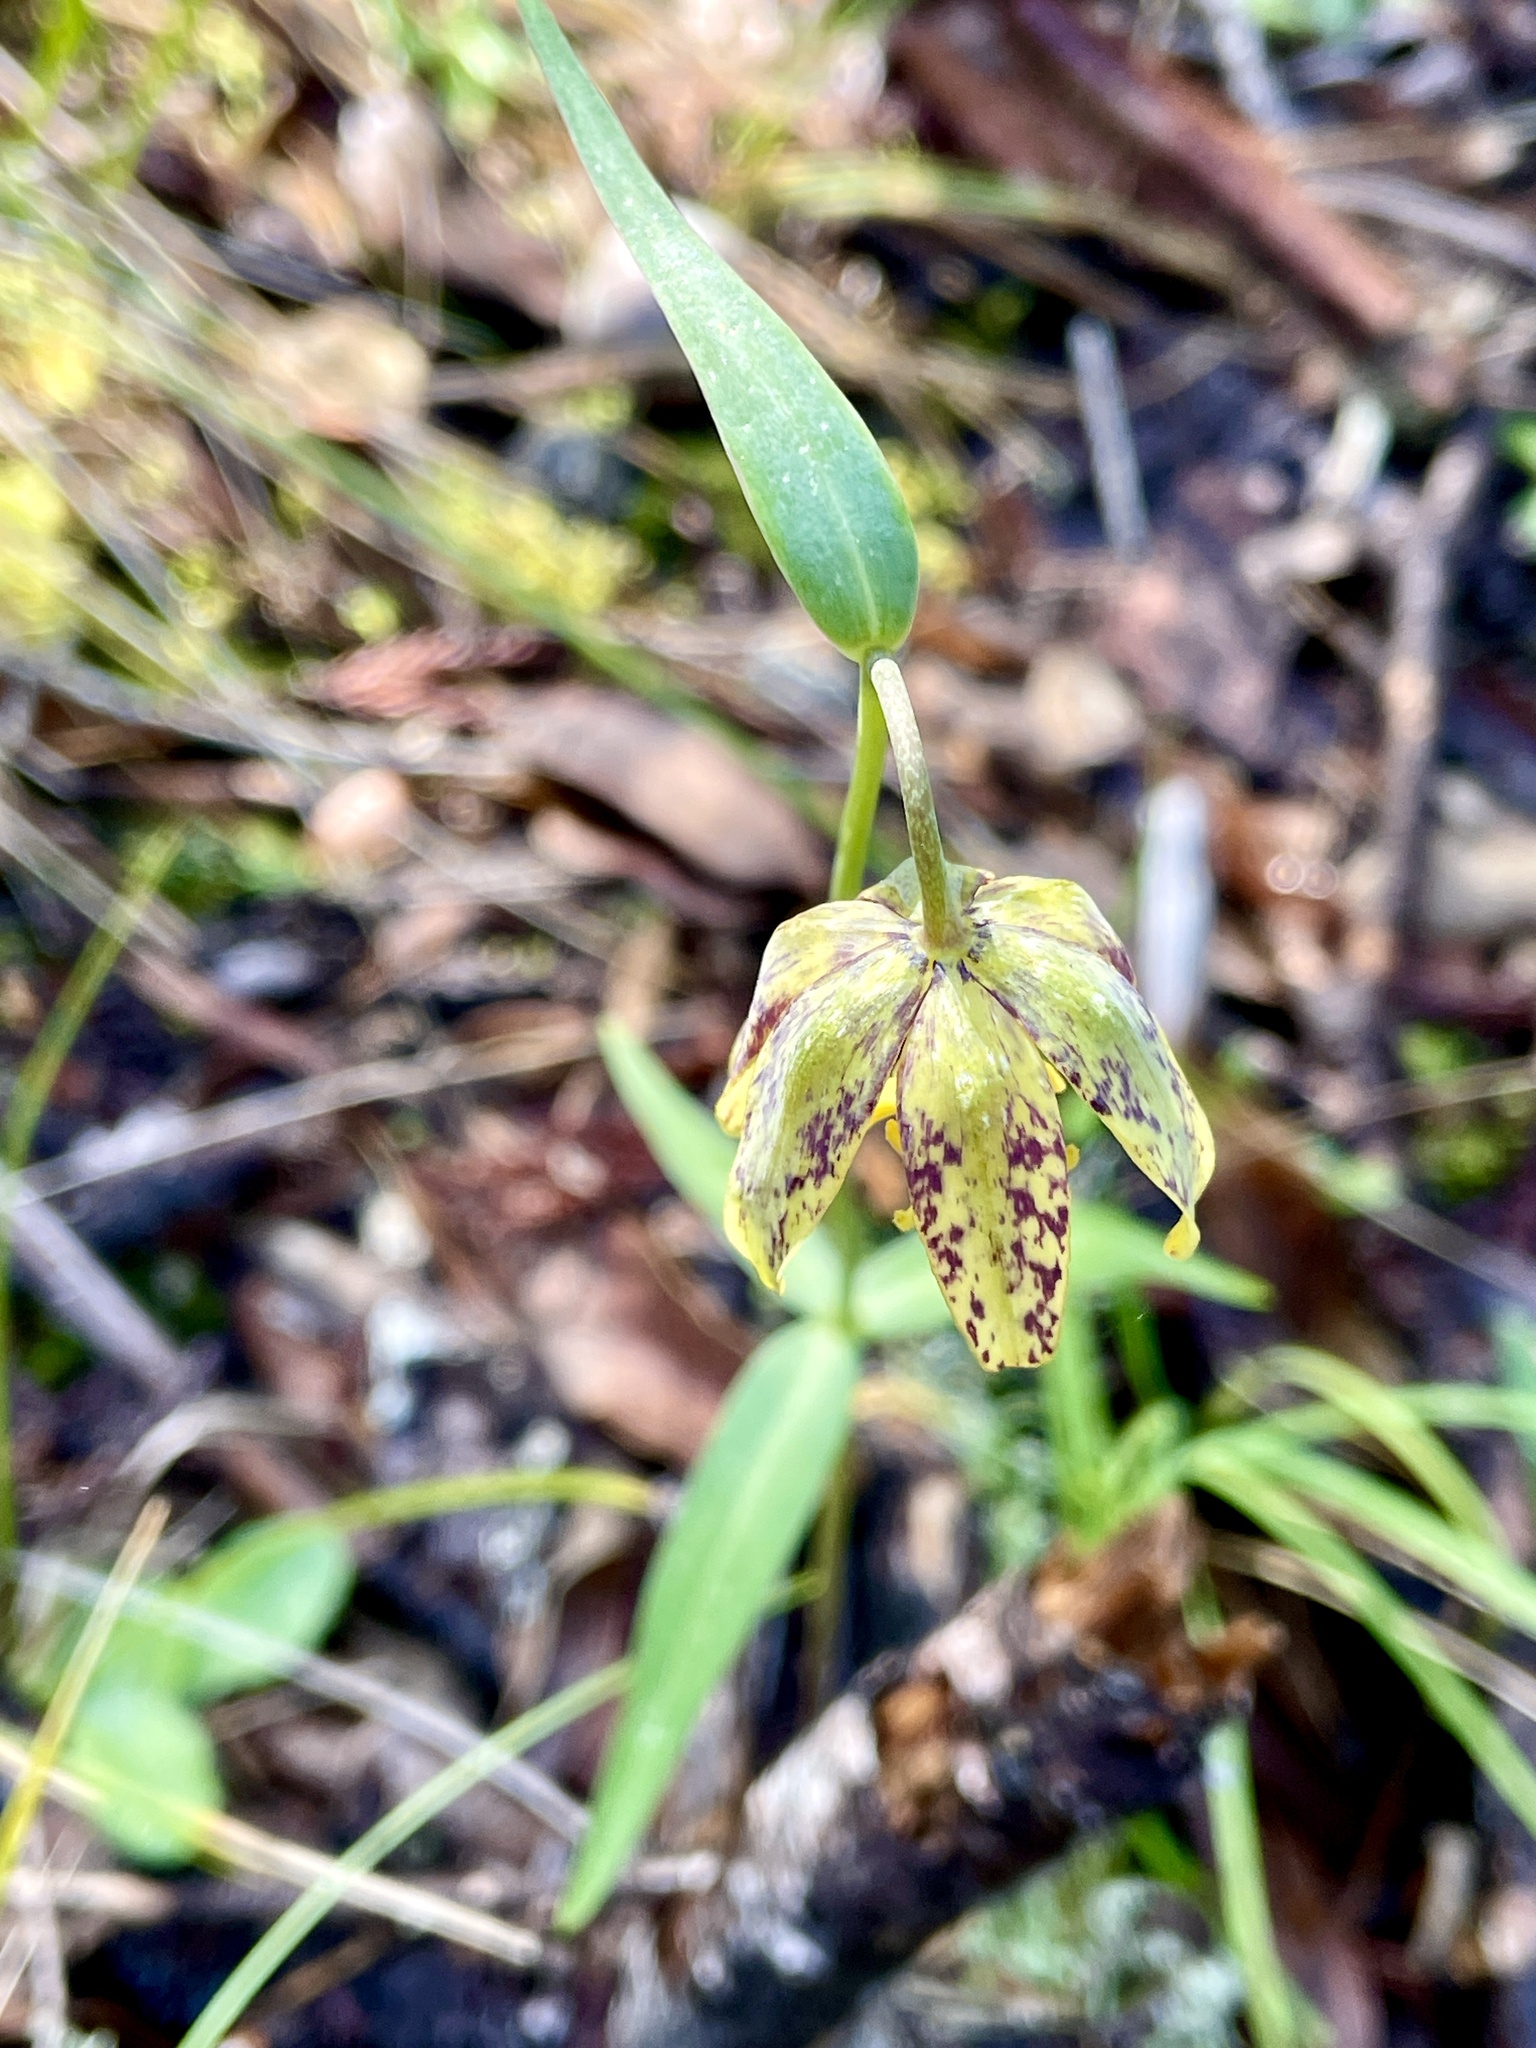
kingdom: Plantae
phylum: Tracheophyta
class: Liliopsida
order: Liliales
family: Liliaceae
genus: Fritillaria
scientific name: Fritillaria affinis
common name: Ojai fritillary
